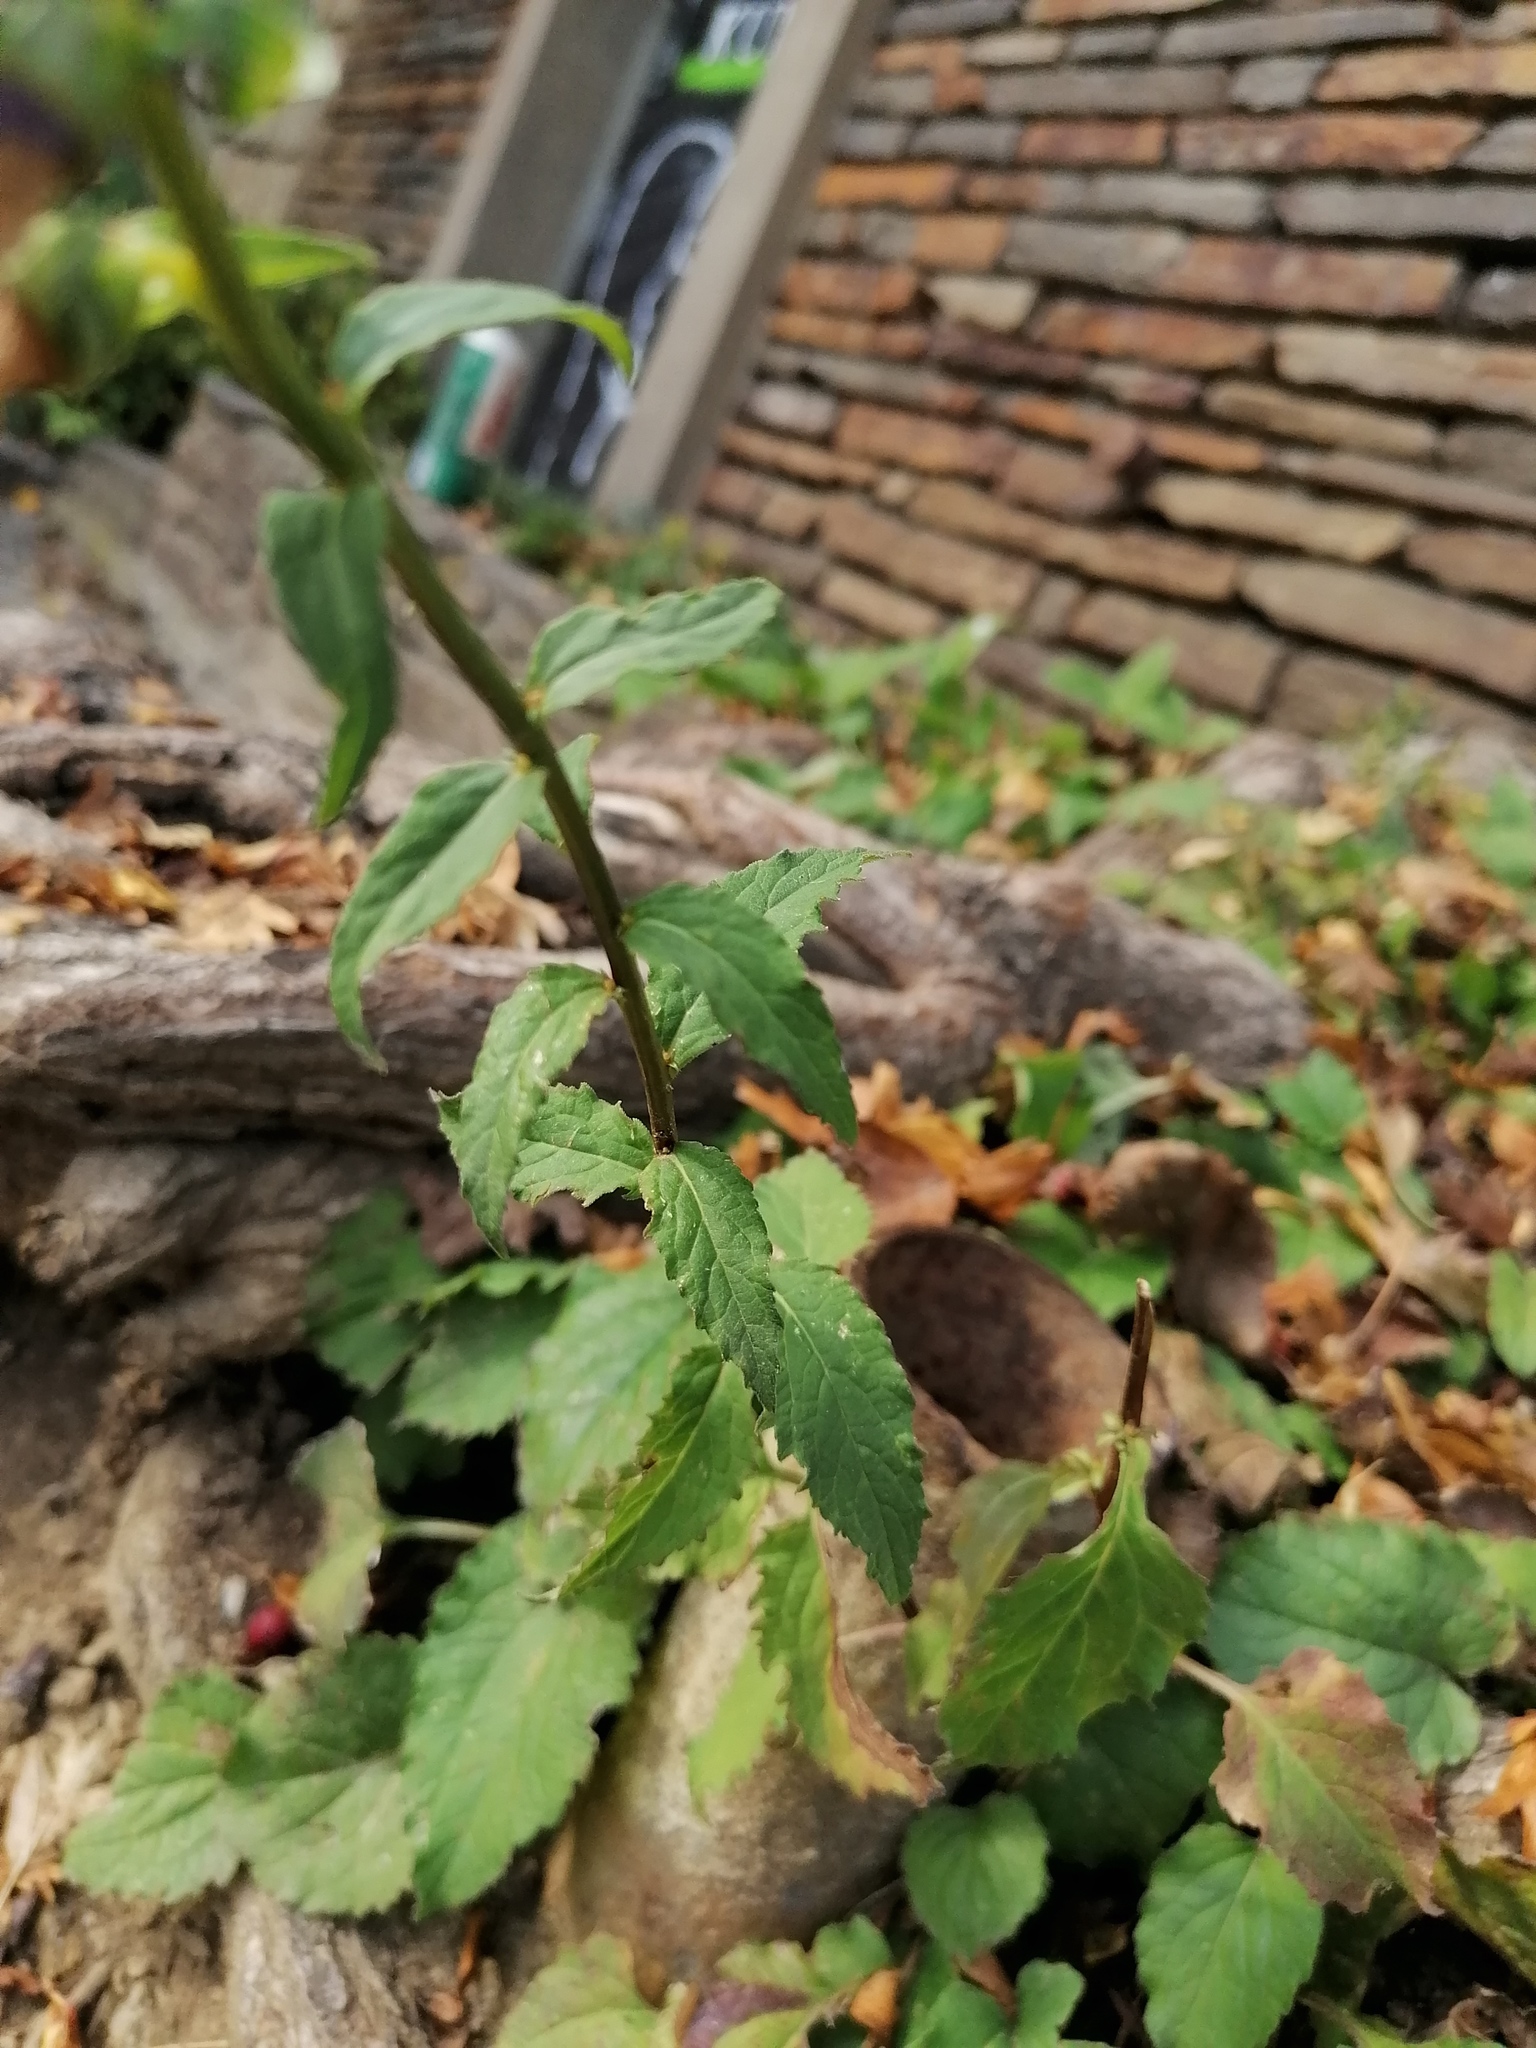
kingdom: Plantae
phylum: Tracheophyta
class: Magnoliopsida
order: Asterales
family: Campanulaceae
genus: Campanula
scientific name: Campanula rapunculoides
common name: Creeping bellflower
